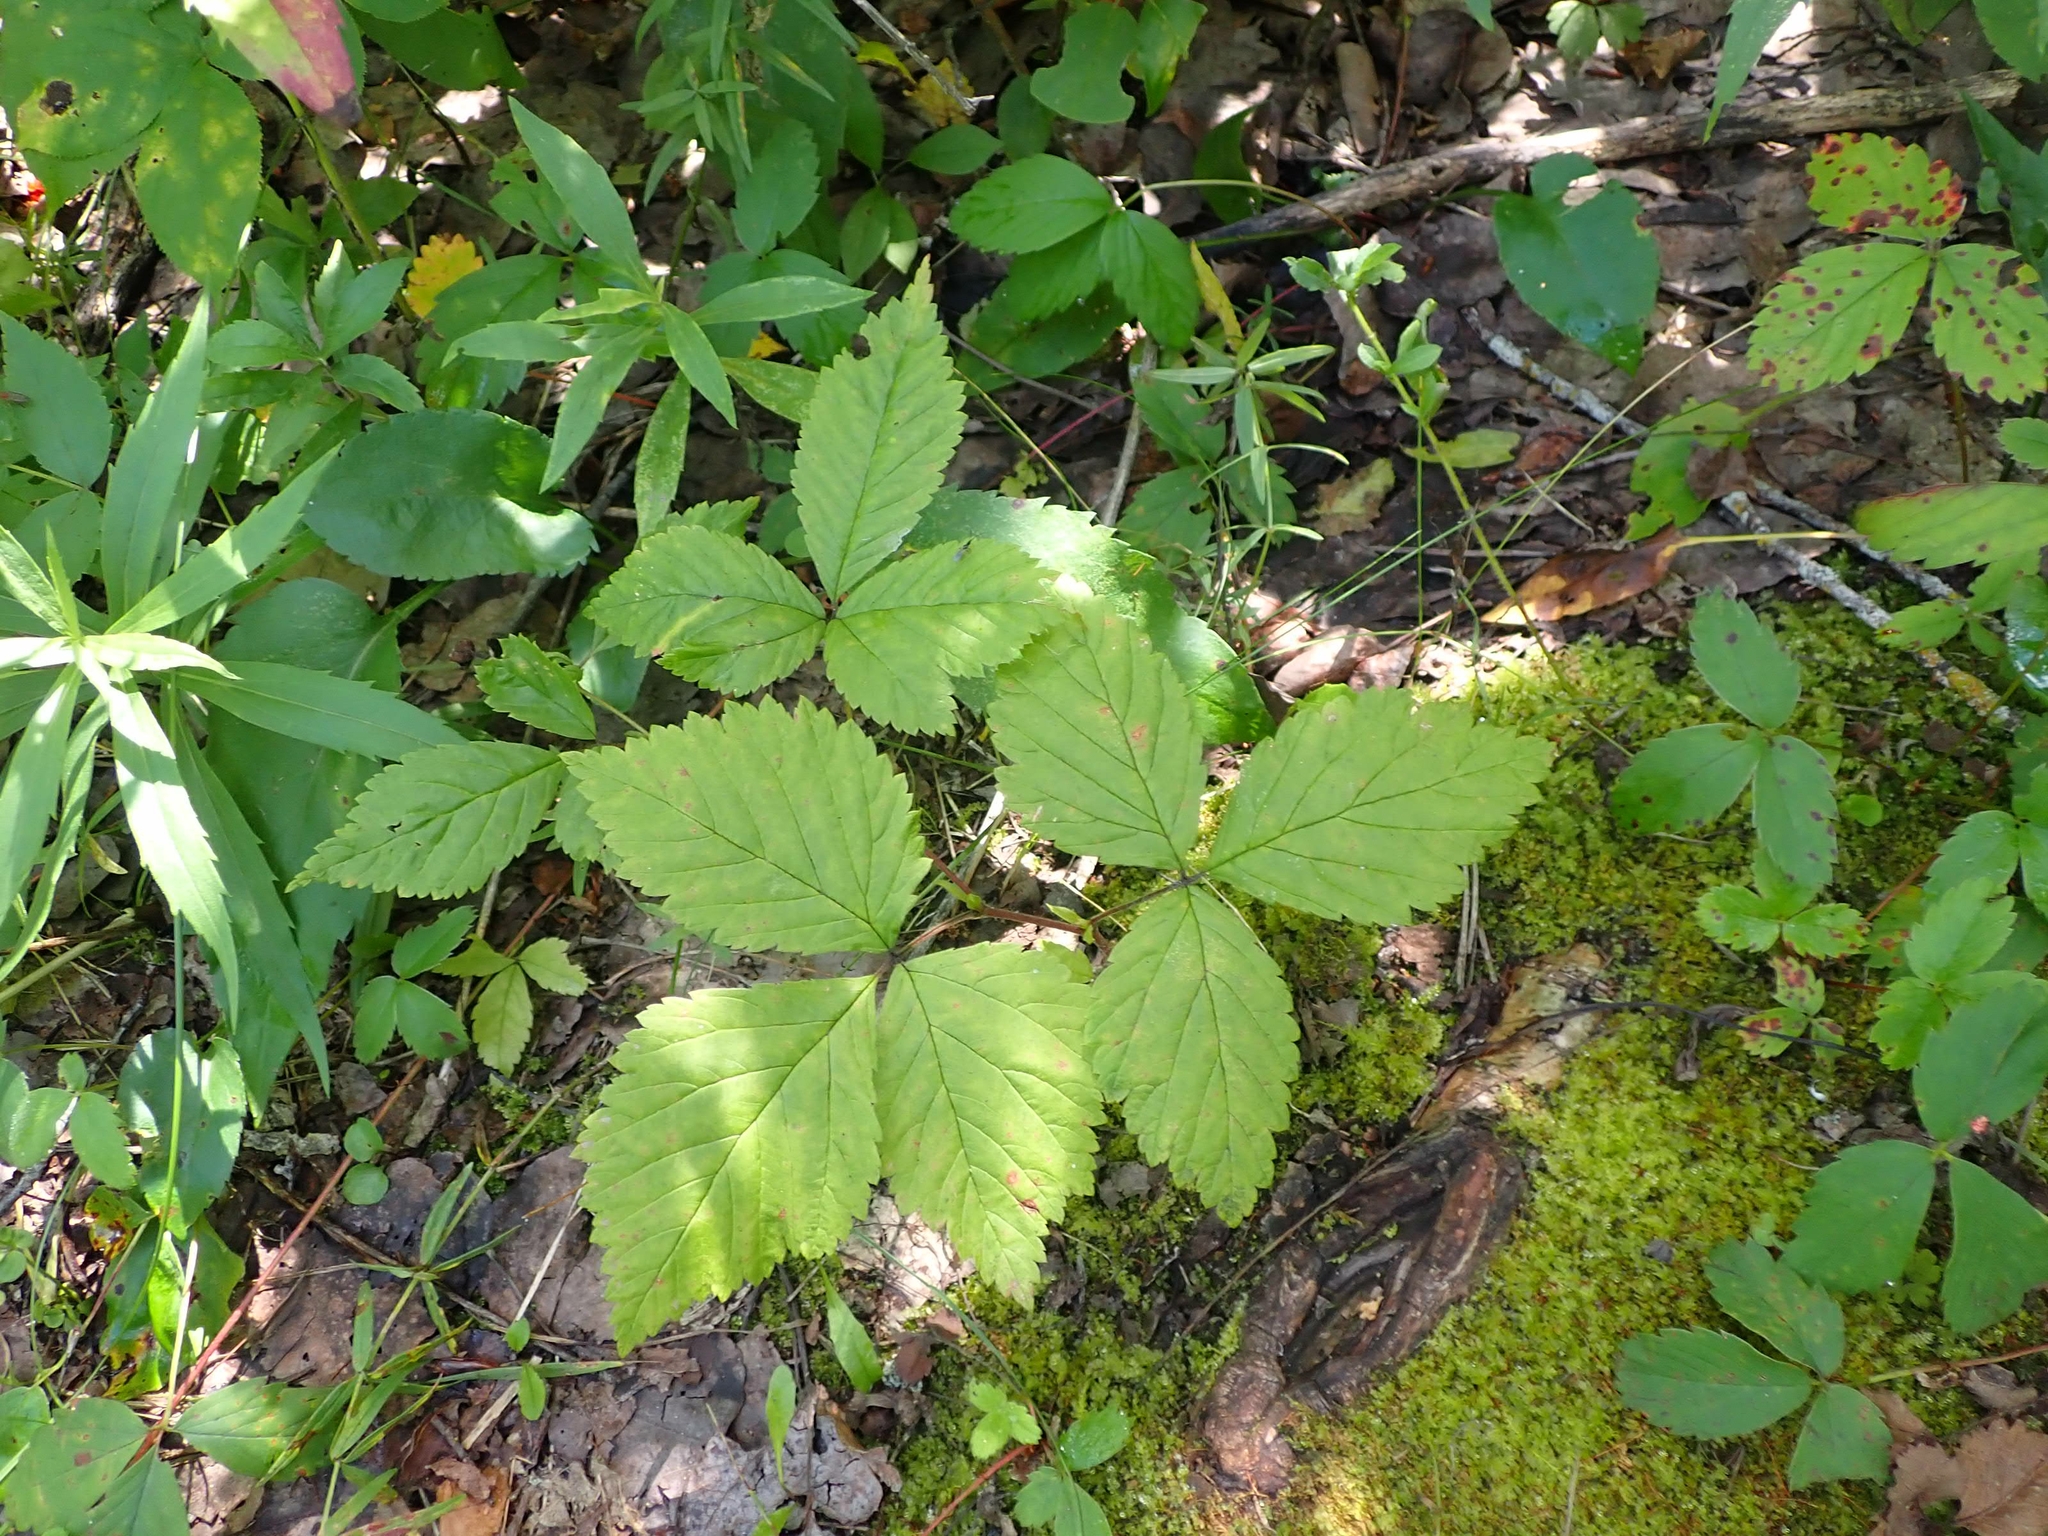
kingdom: Plantae
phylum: Tracheophyta
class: Magnoliopsida
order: Rosales
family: Rosaceae
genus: Rubus
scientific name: Rubus pubescens
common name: Dwarf raspberry
